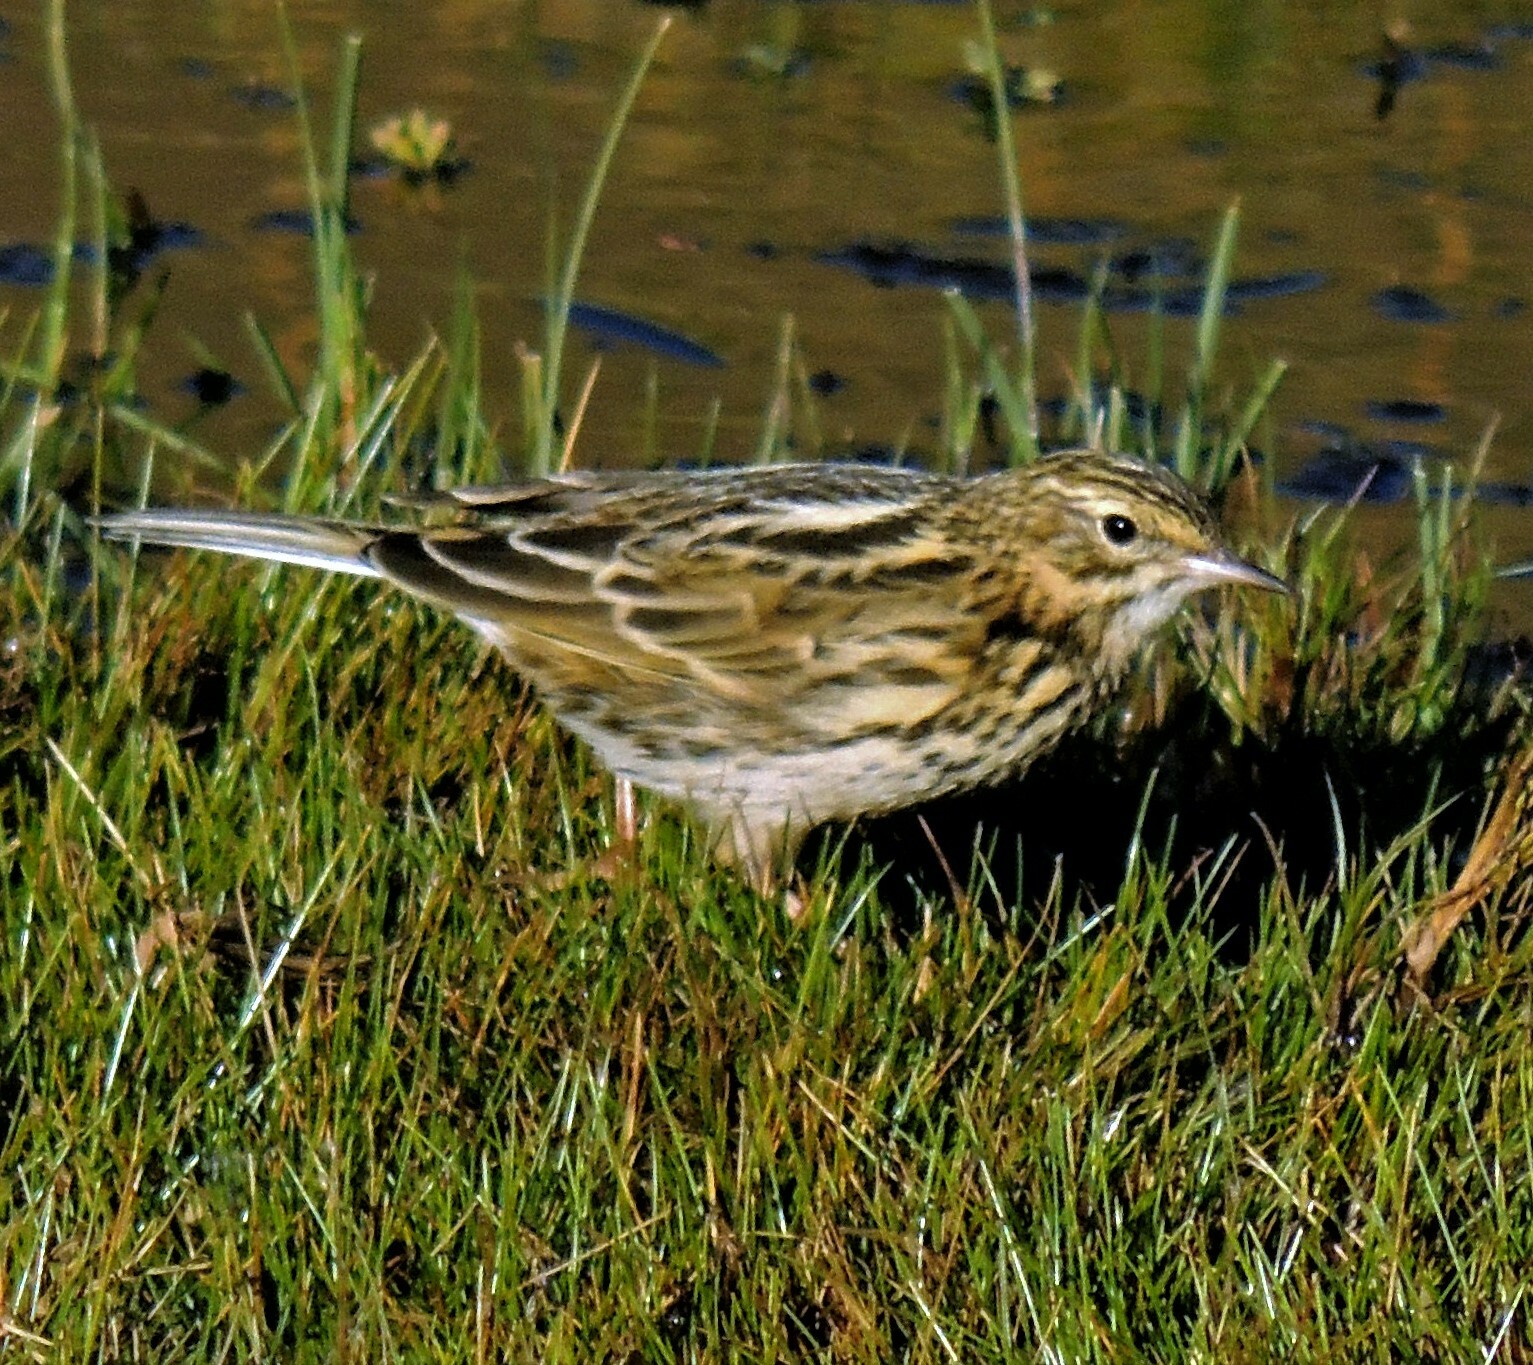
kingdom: Animalia
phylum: Chordata
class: Aves
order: Passeriformes
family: Motacillidae
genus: Anthus
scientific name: Anthus correndera
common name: Correndera pipit
